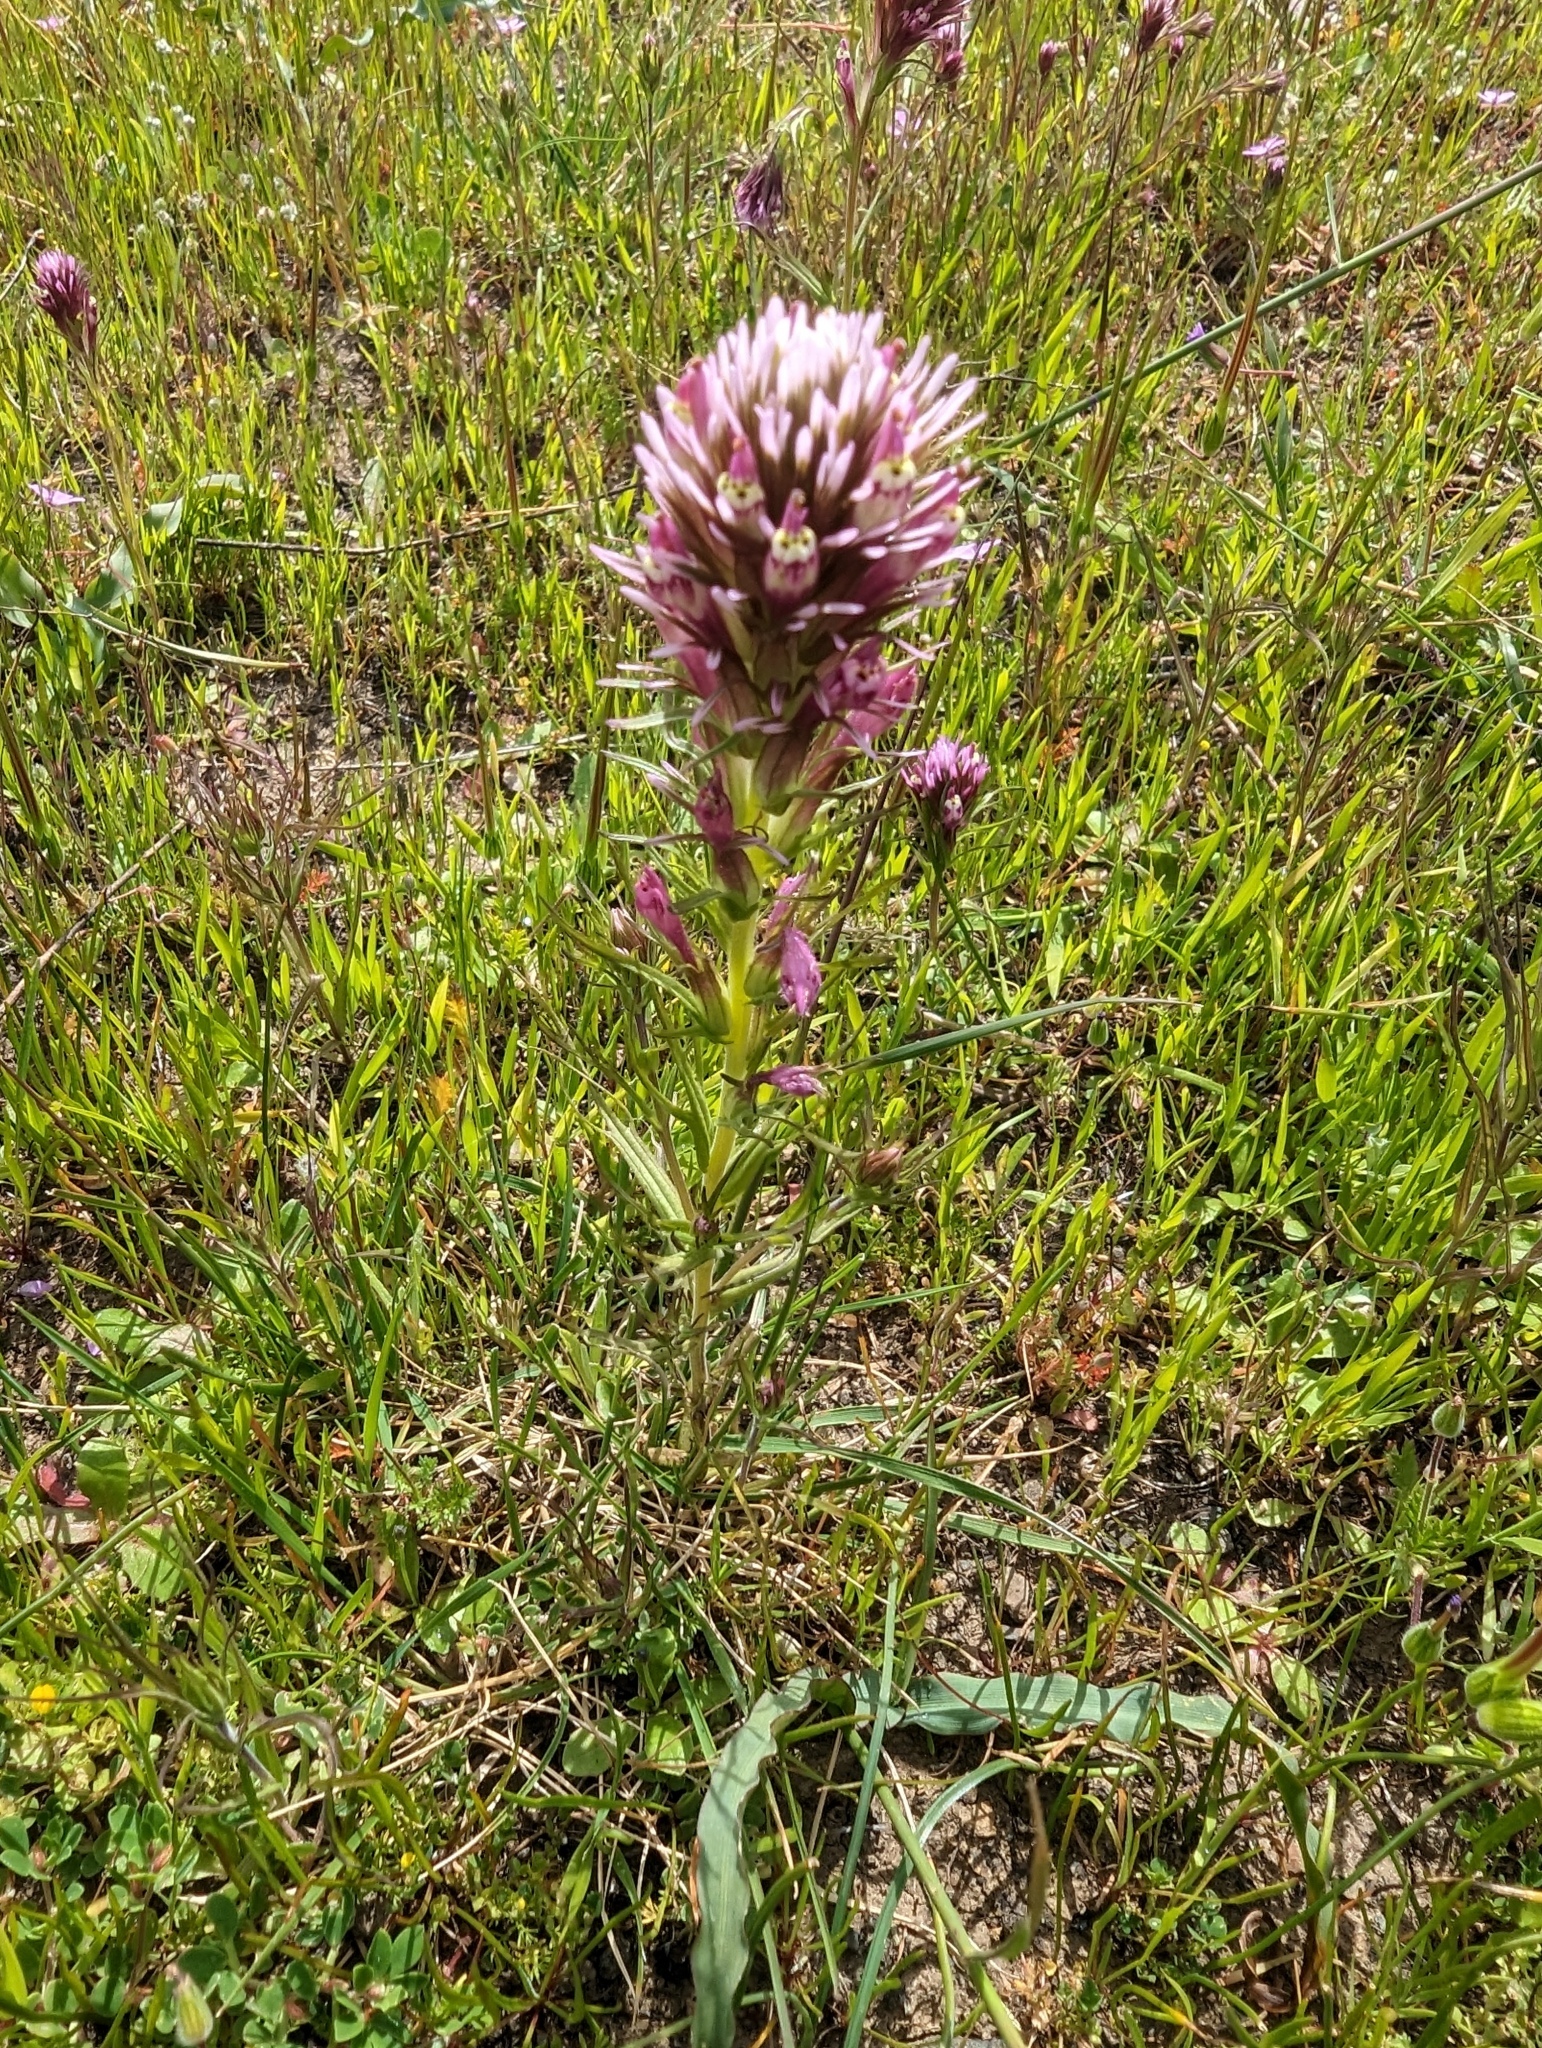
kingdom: Plantae
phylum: Tracheophyta
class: Magnoliopsida
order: Lamiales
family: Orobanchaceae
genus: Castilleja
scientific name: Castilleja densiflora
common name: Dense-flower indian paintbrush
